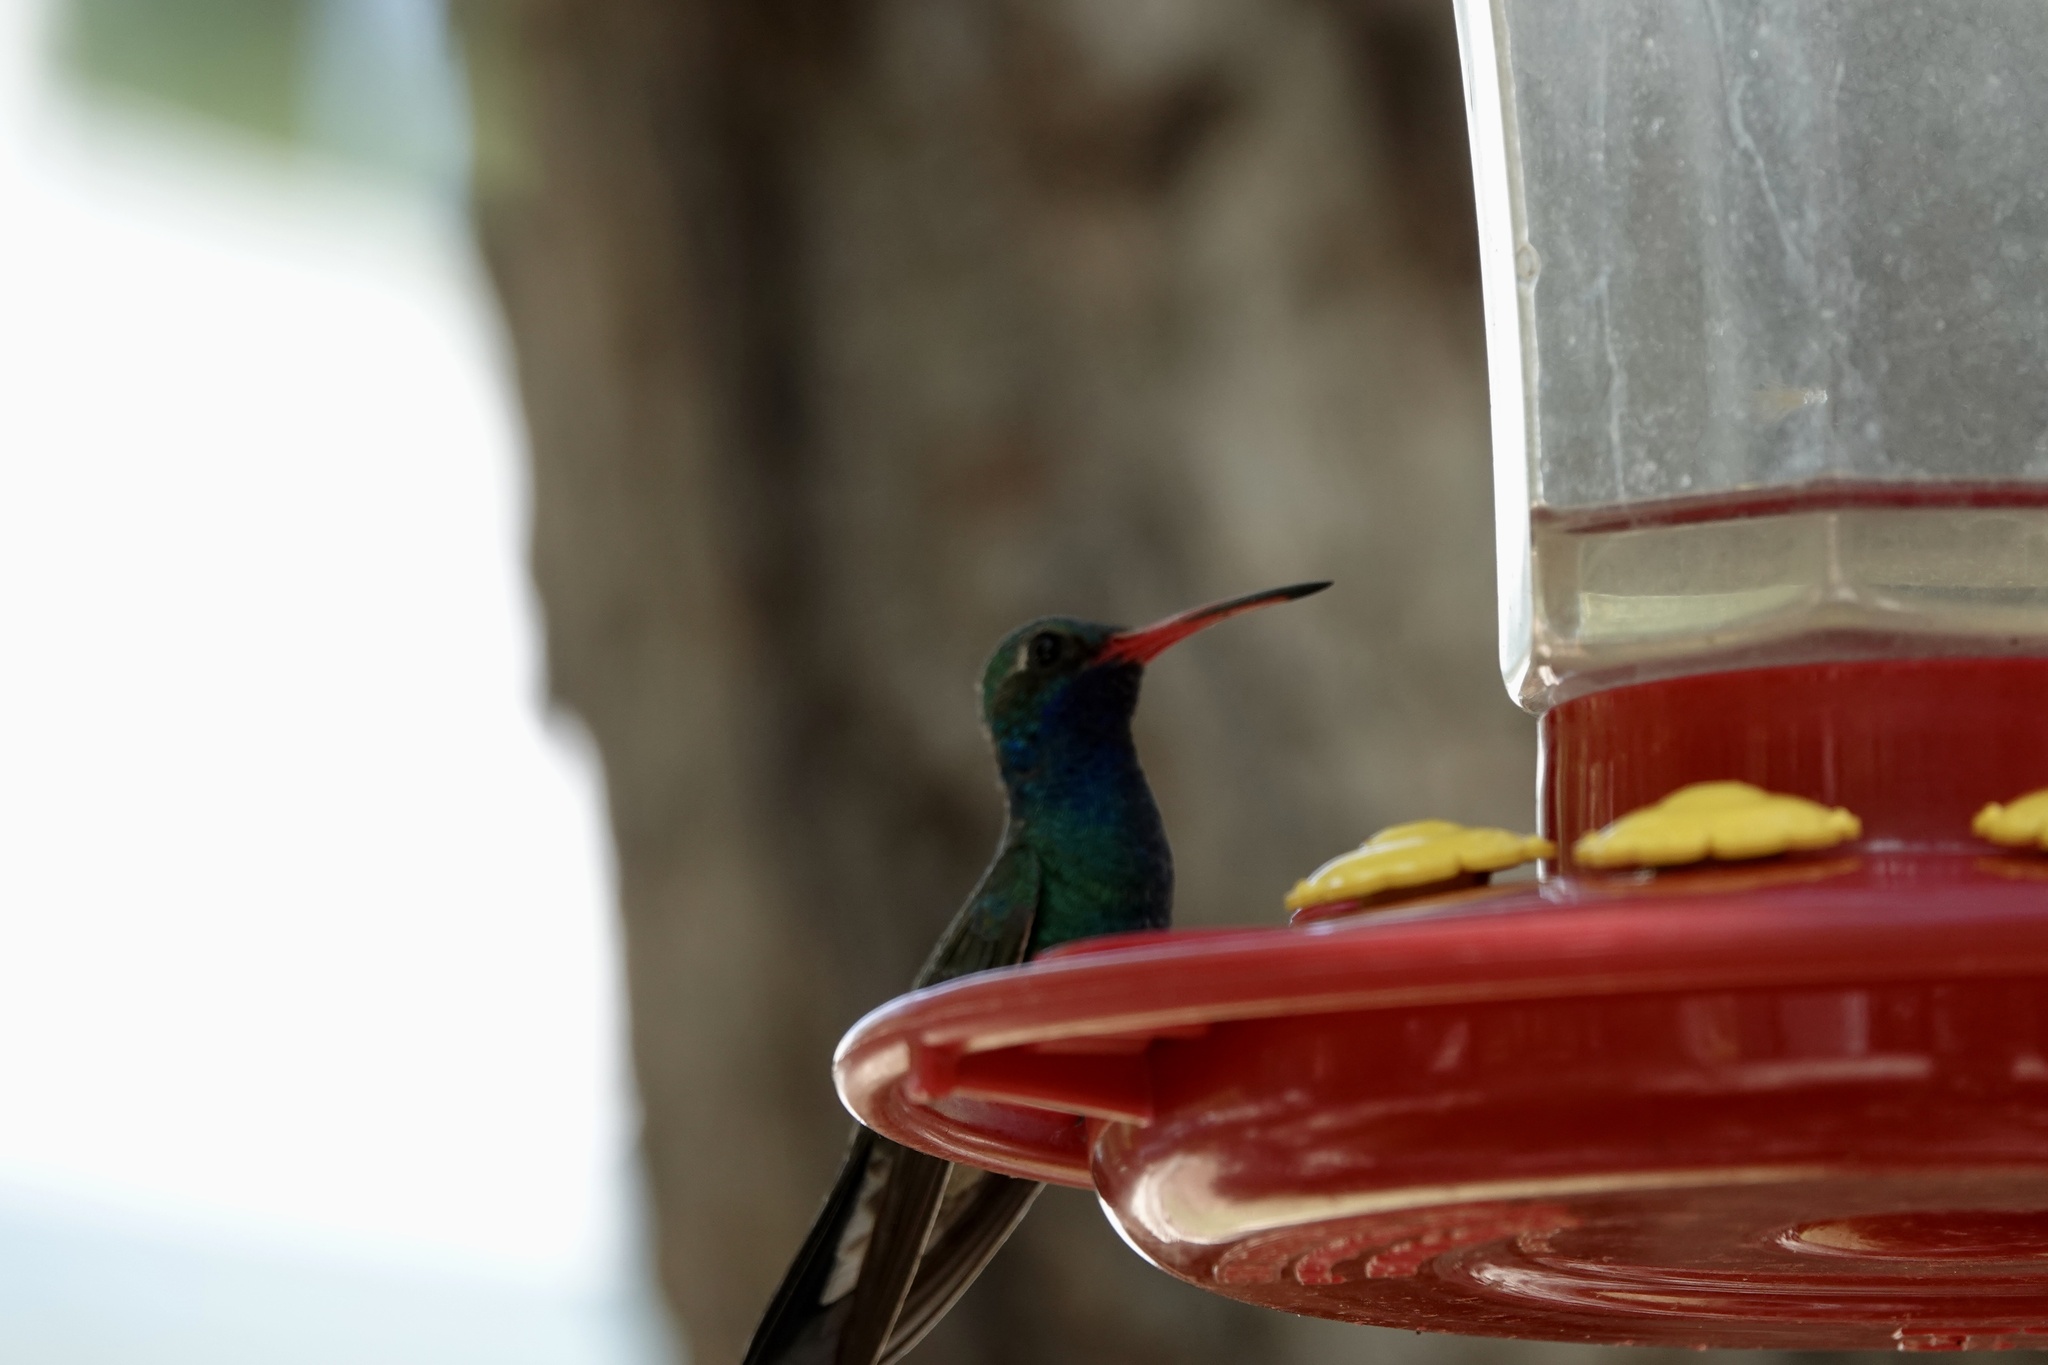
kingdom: Animalia
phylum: Chordata
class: Aves
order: Apodiformes
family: Trochilidae
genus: Cynanthus
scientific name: Cynanthus latirostris
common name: Broad-billed hummingbird
